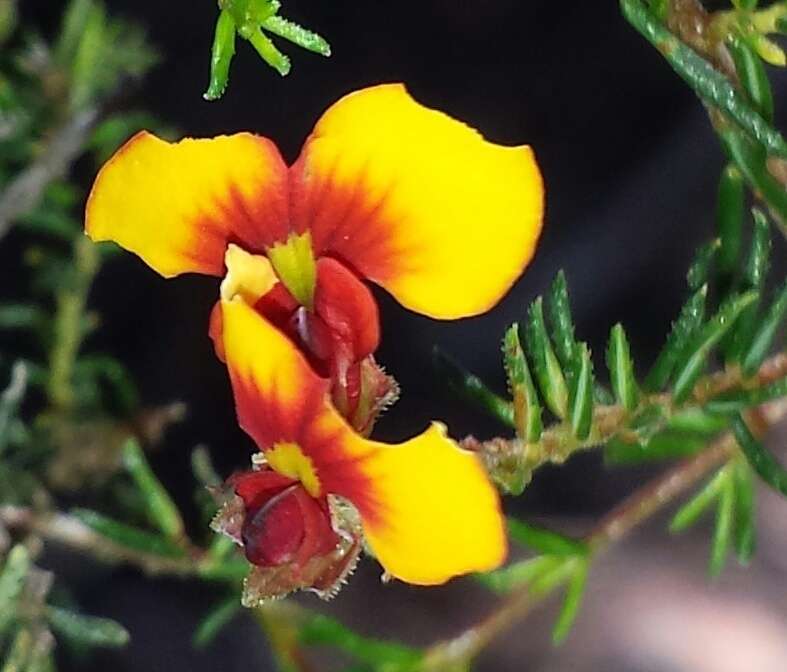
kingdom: Plantae
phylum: Tracheophyta
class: Magnoliopsida
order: Fabales
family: Fabaceae
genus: Dillwynia
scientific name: Dillwynia phylicoides
